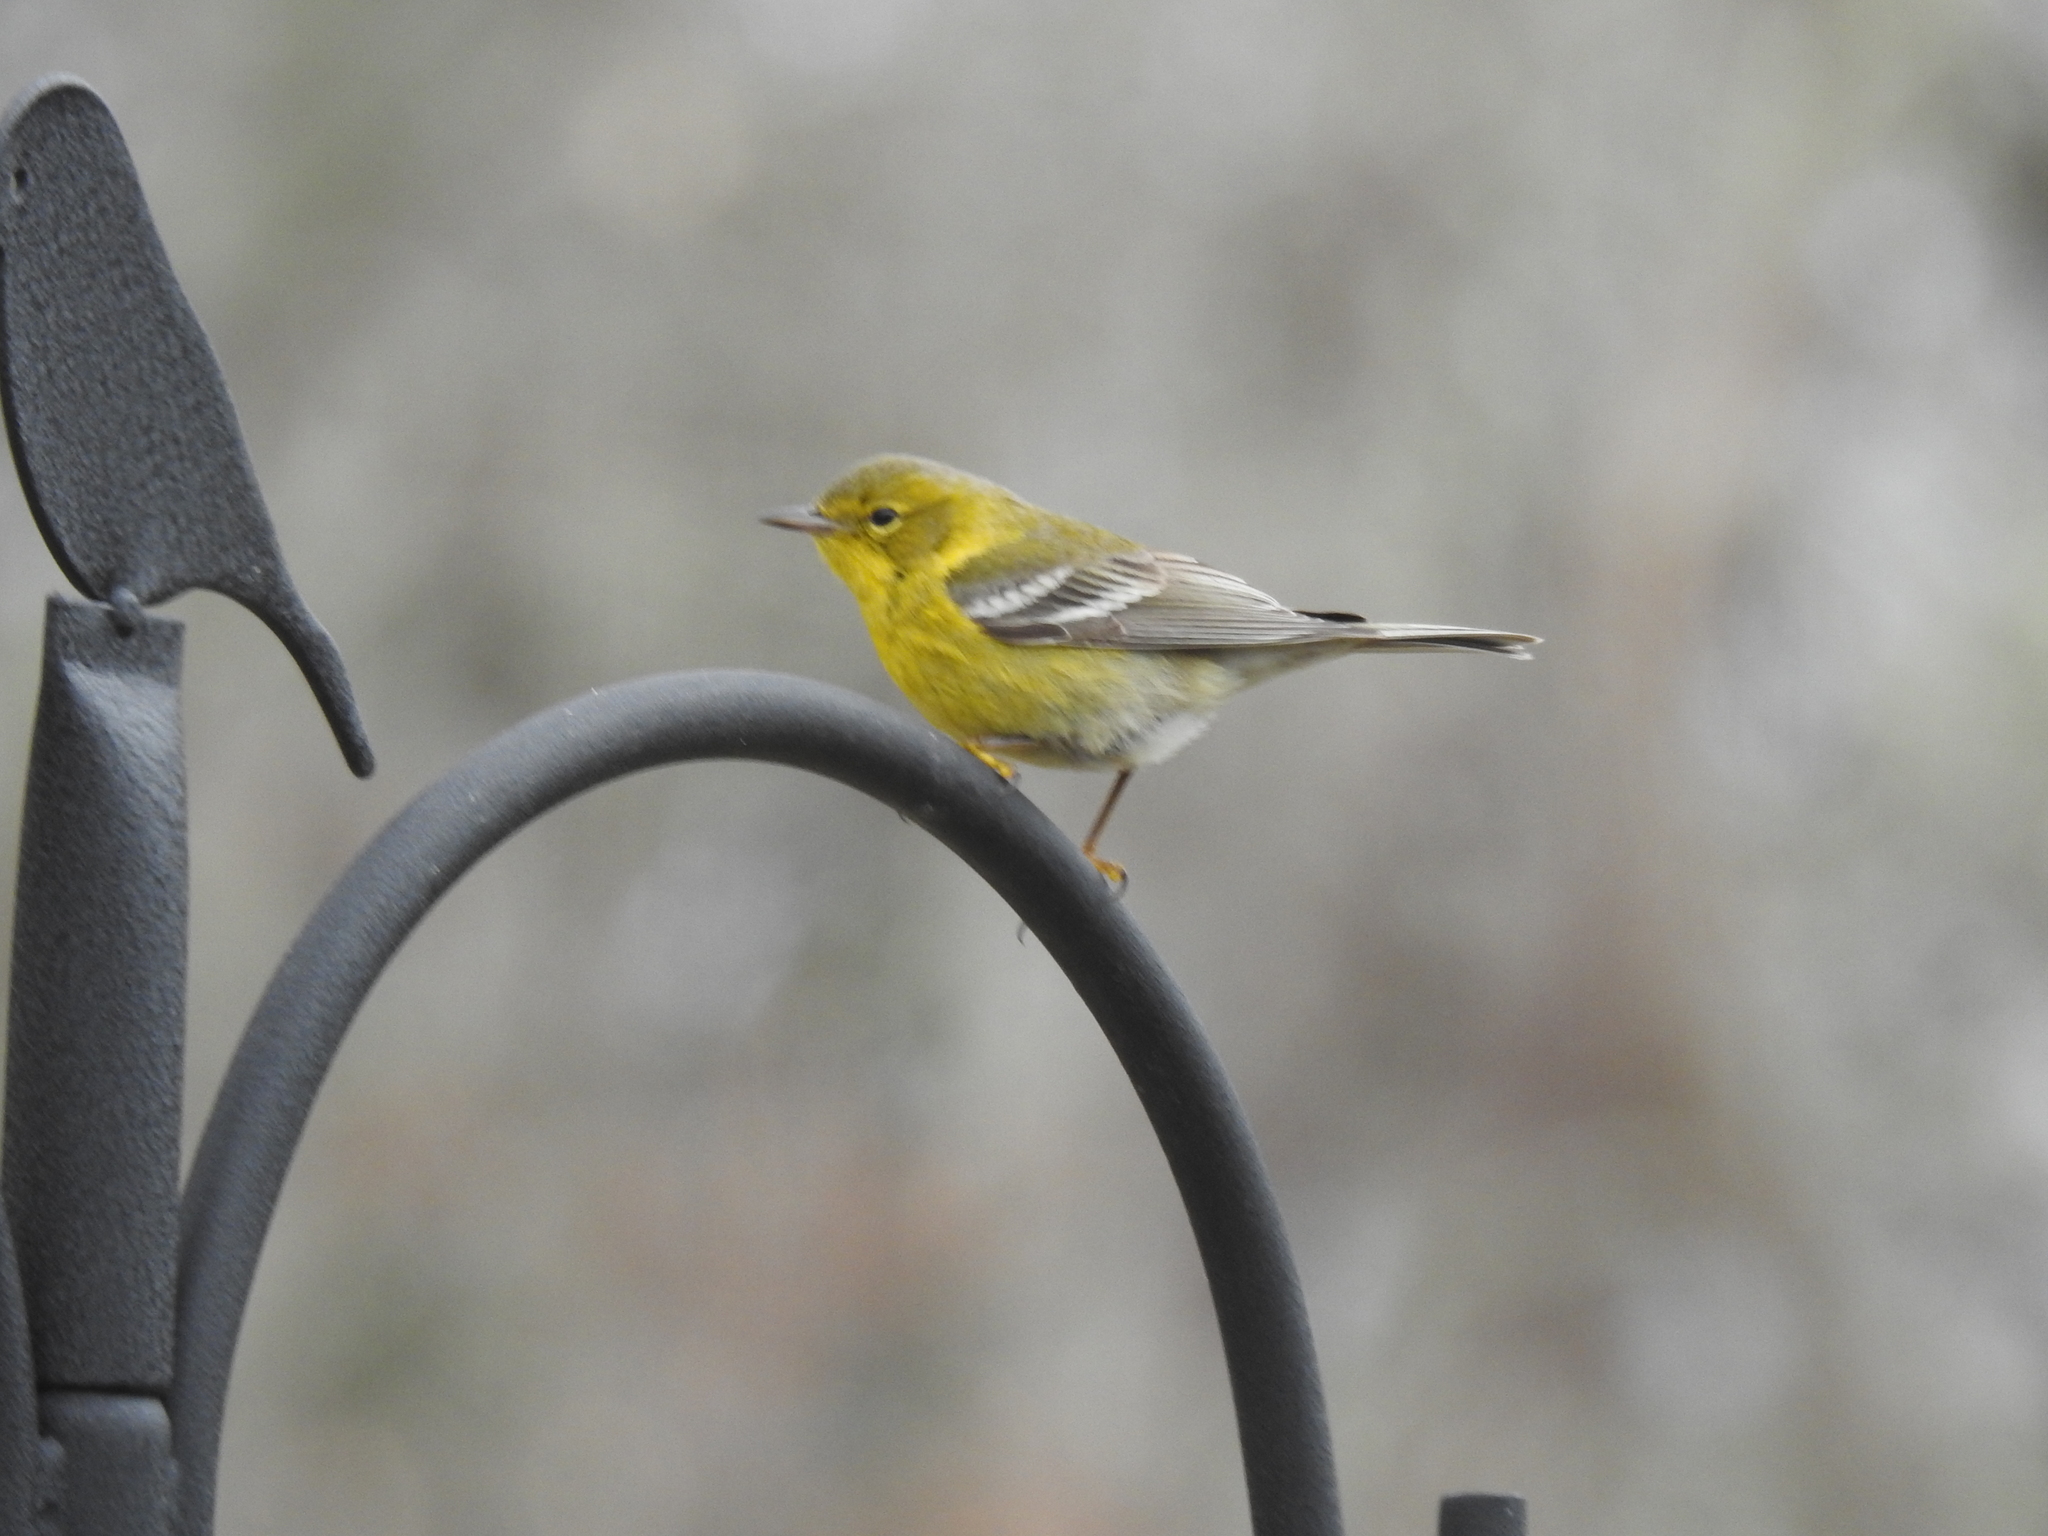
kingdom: Animalia
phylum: Chordata
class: Aves
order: Passeriformes
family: Parulidae
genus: Setophaga
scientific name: Setophaga pinus
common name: Pine warbler
